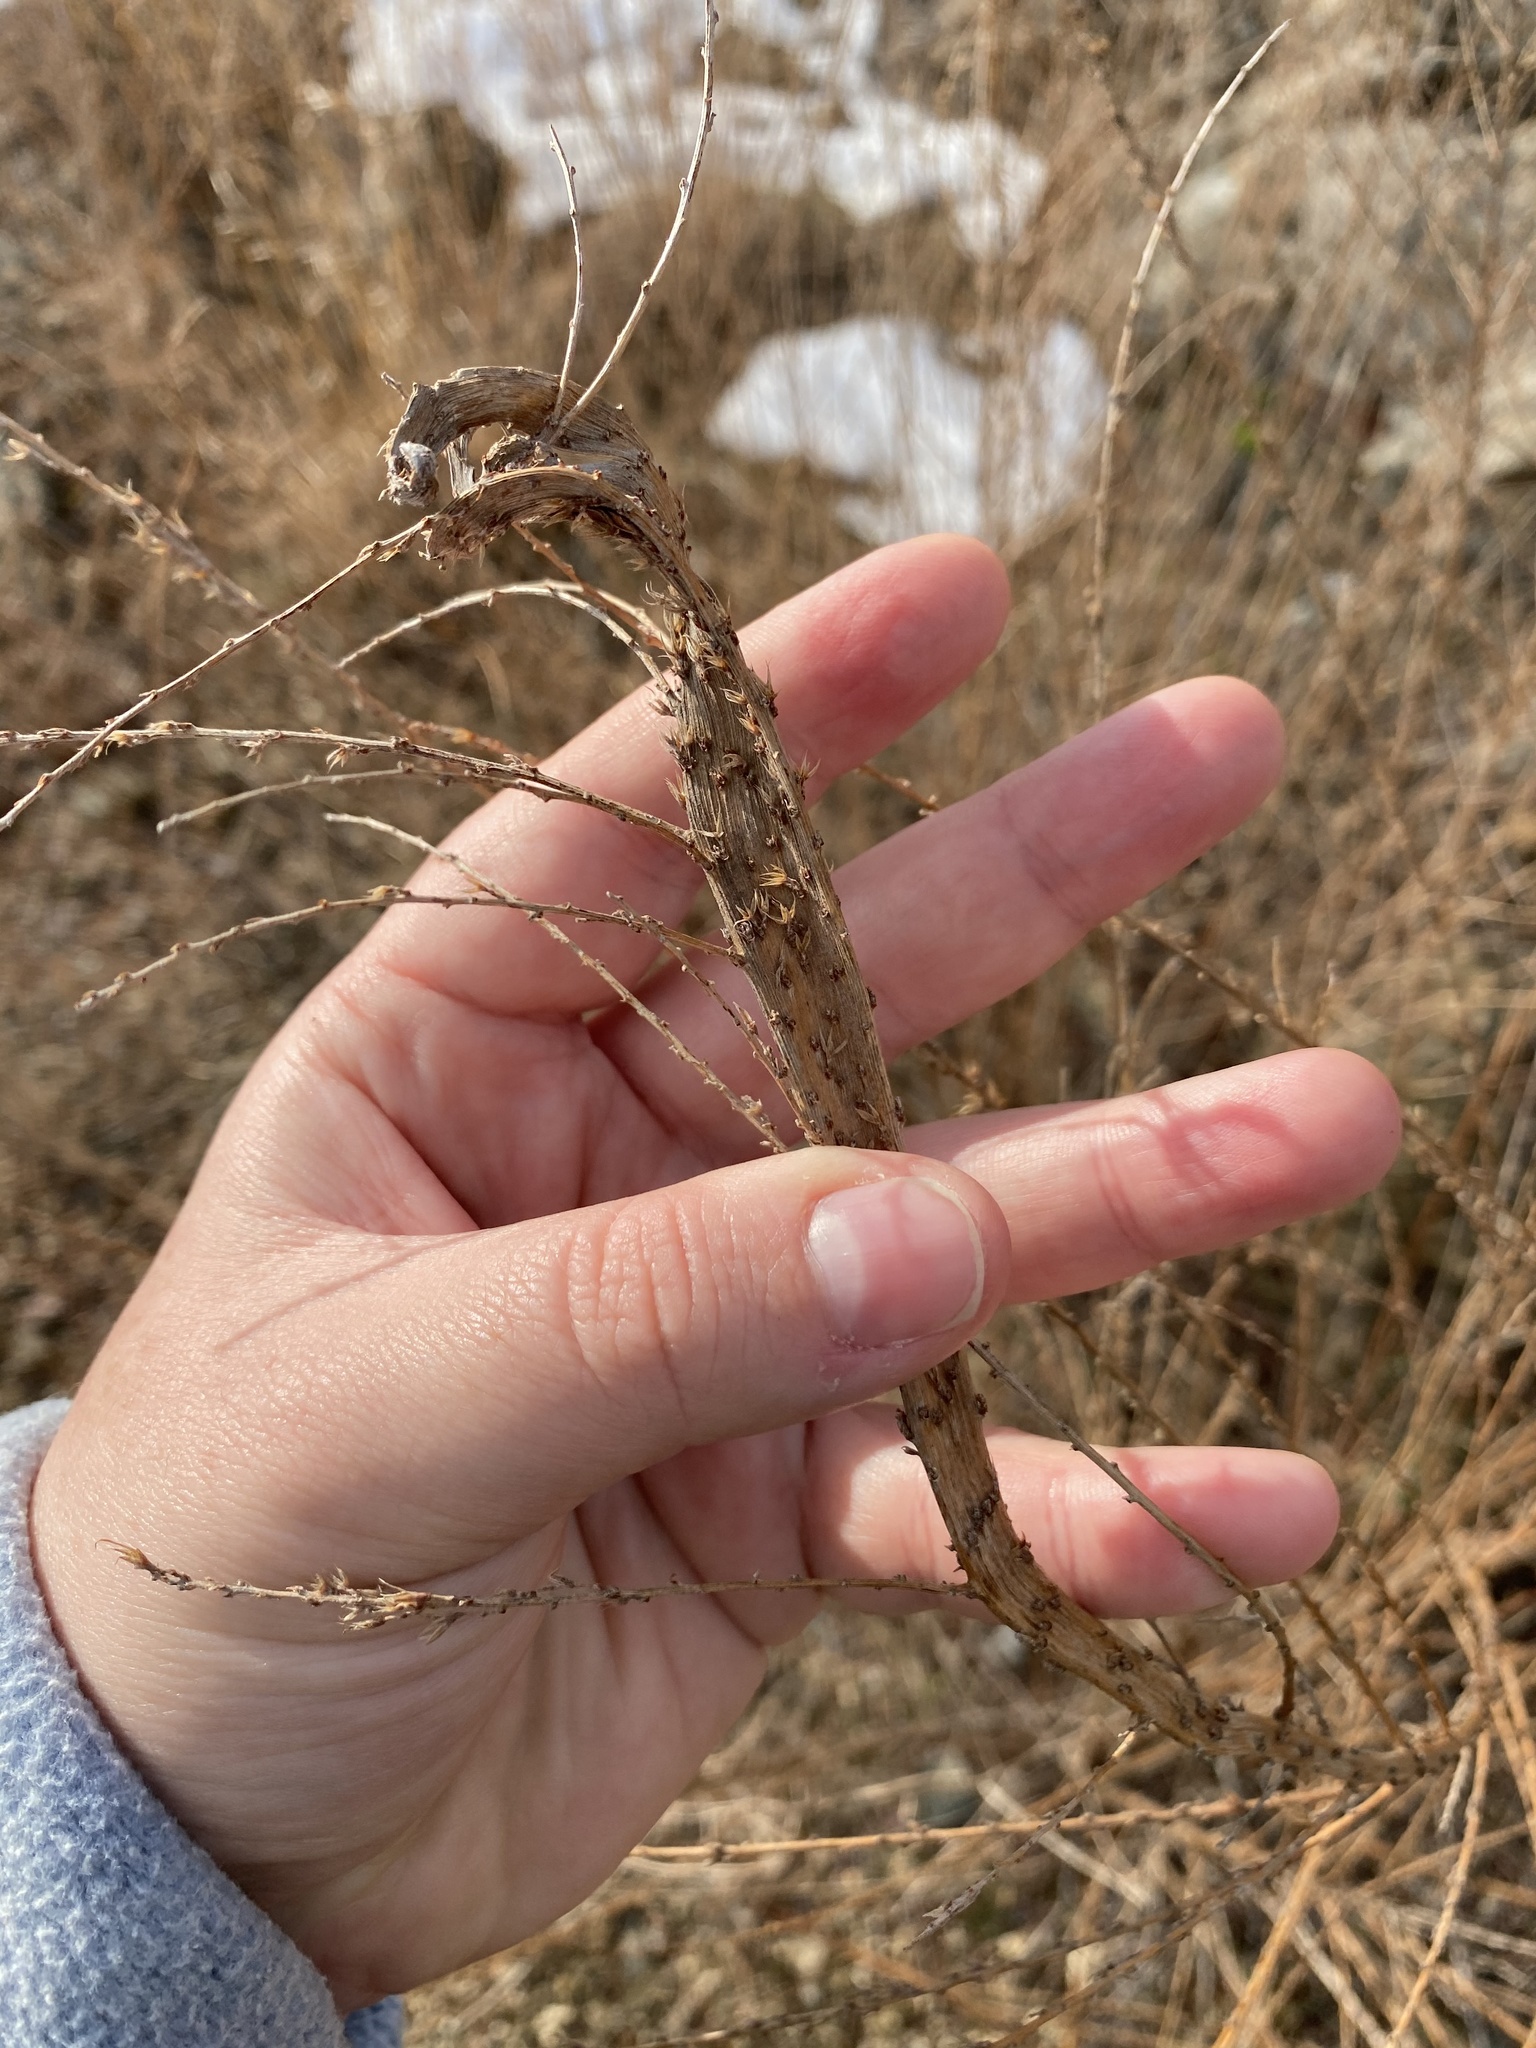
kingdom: Plantae
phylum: Tracheophyta
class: Magnoliopsida
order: Fabales
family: Fabaceae
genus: Lespedeza
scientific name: Lespedeza cuneata
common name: Chinese bush-clover
